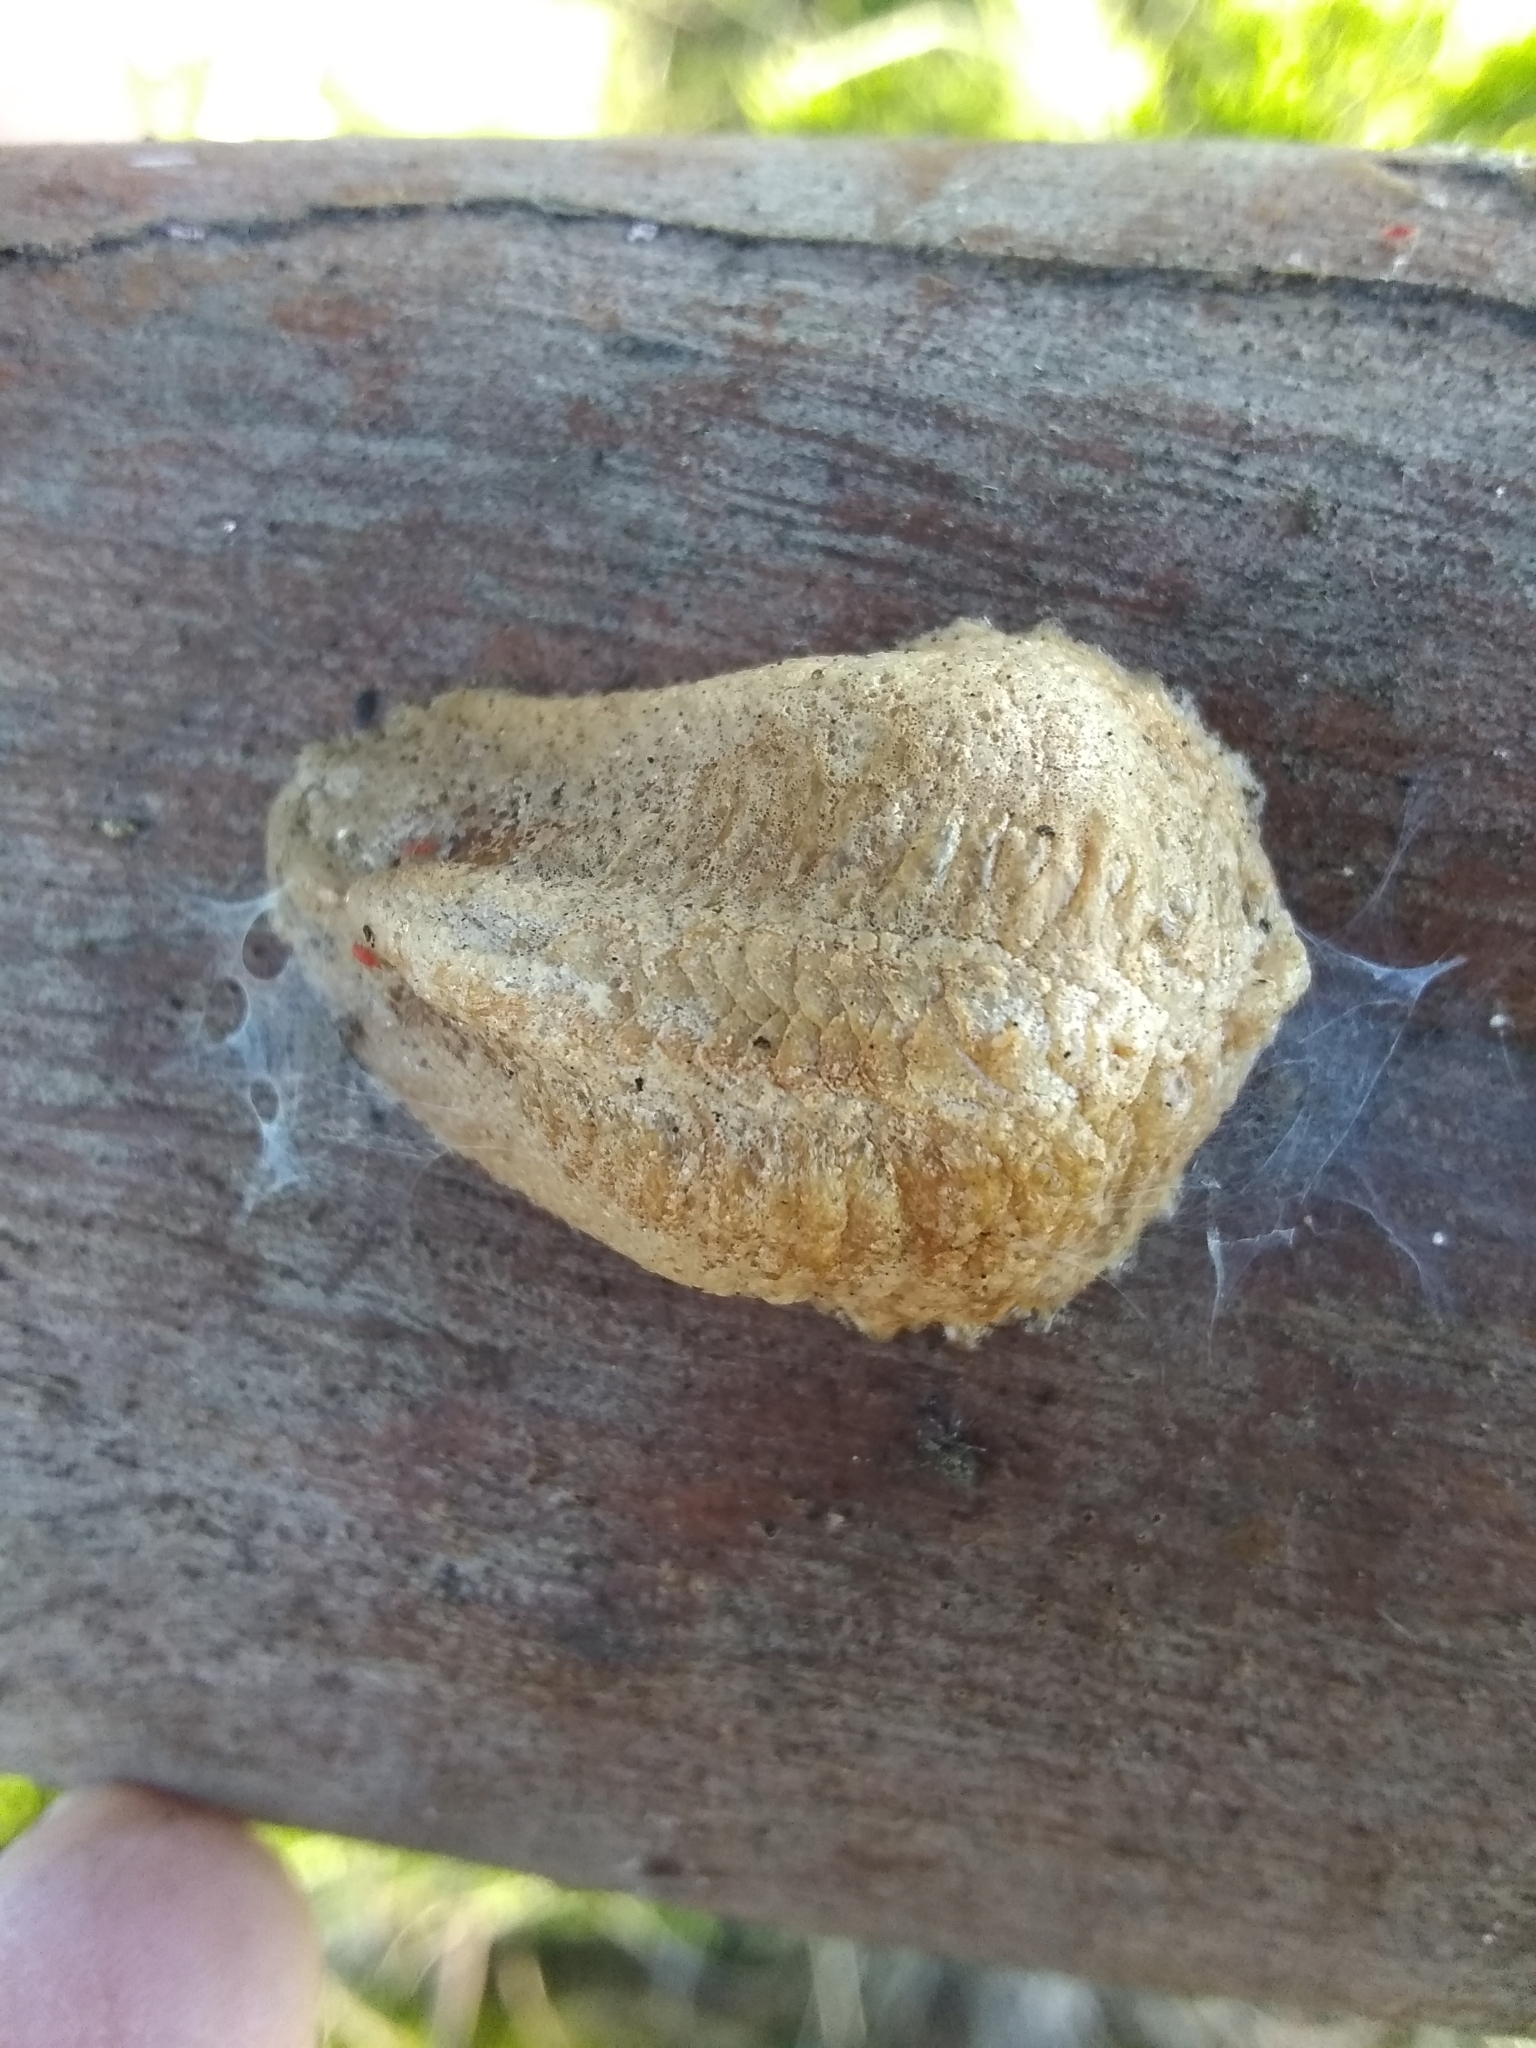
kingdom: Animalia
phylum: Arthropoda
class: Insecta
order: Mantodea
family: Mantidae
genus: Mantis
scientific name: Mantis religiosa
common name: Praying mantis
